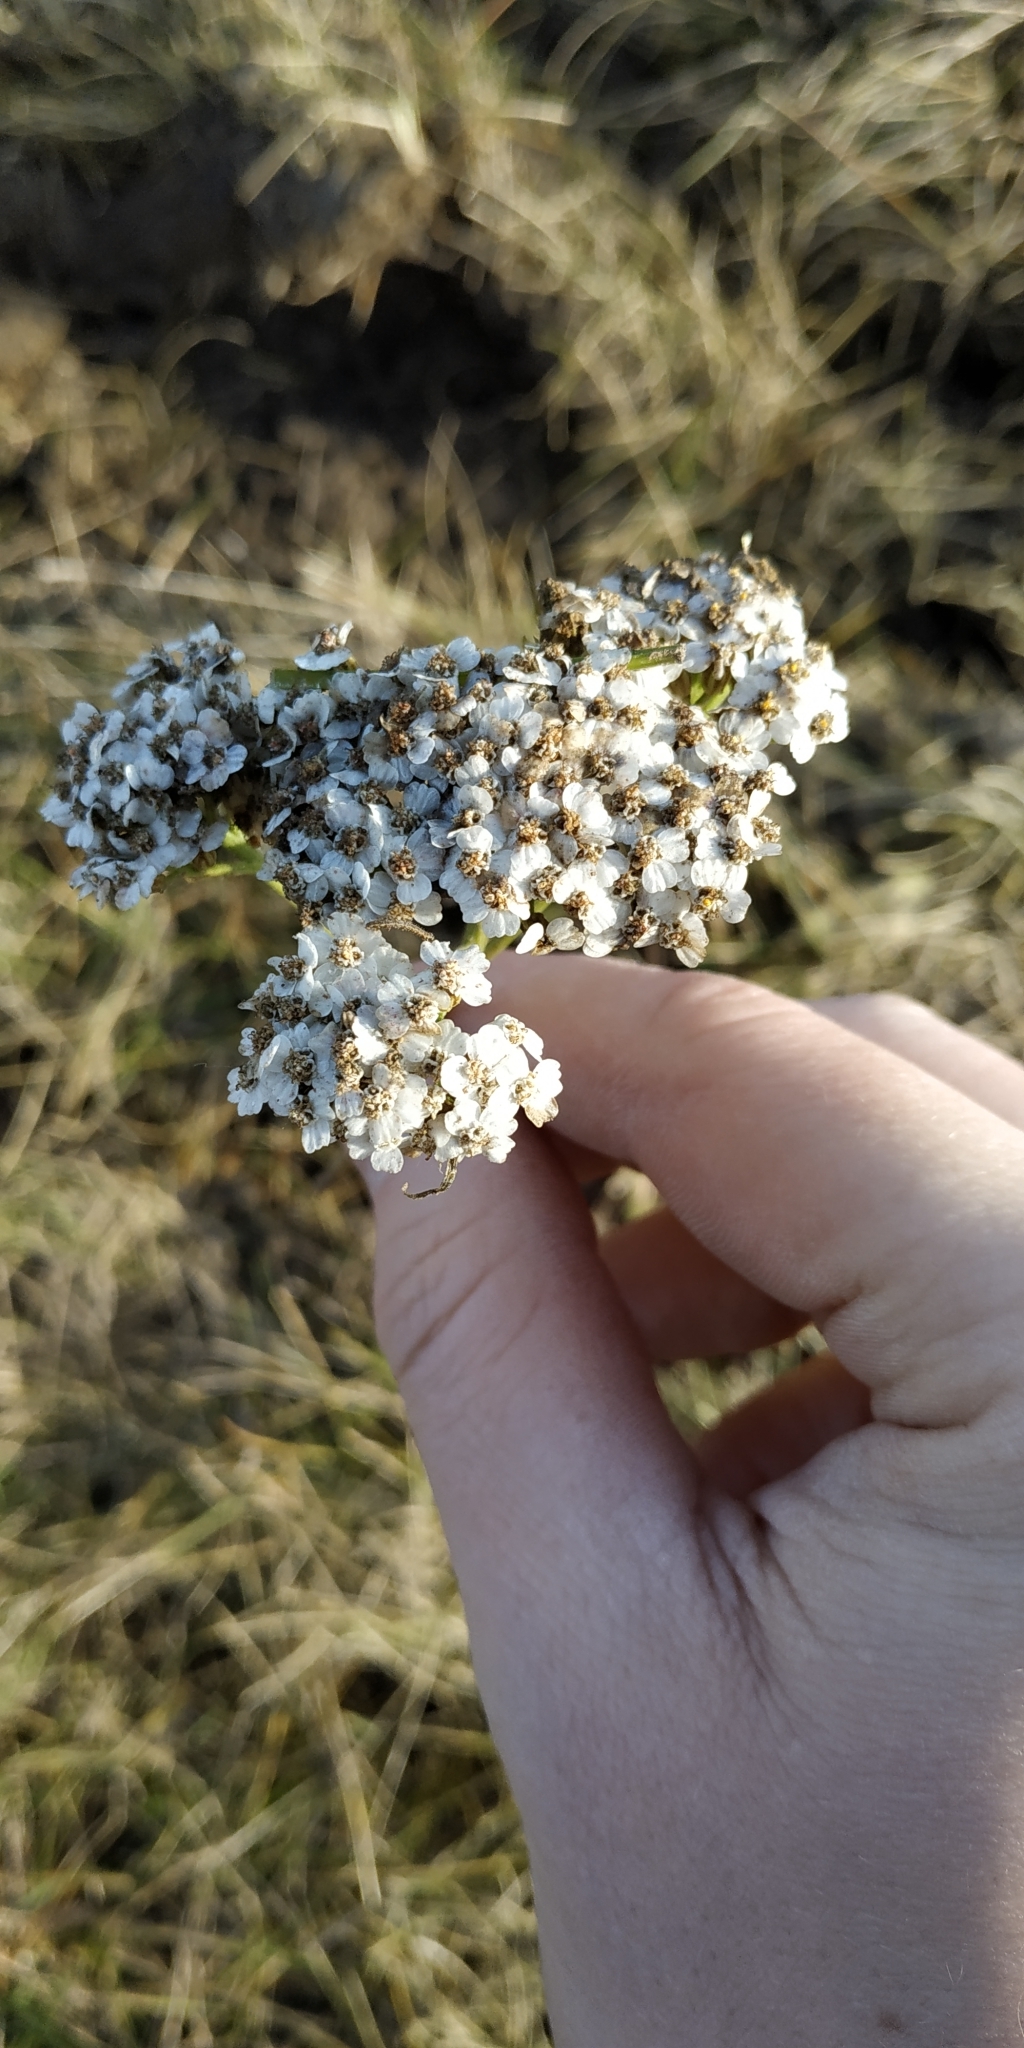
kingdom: Plantae
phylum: Tracheophyta
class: Magnoliopsida
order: Asterales
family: Asteraceae
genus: Achillea
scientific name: Achillea millefolium
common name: Yarrow
